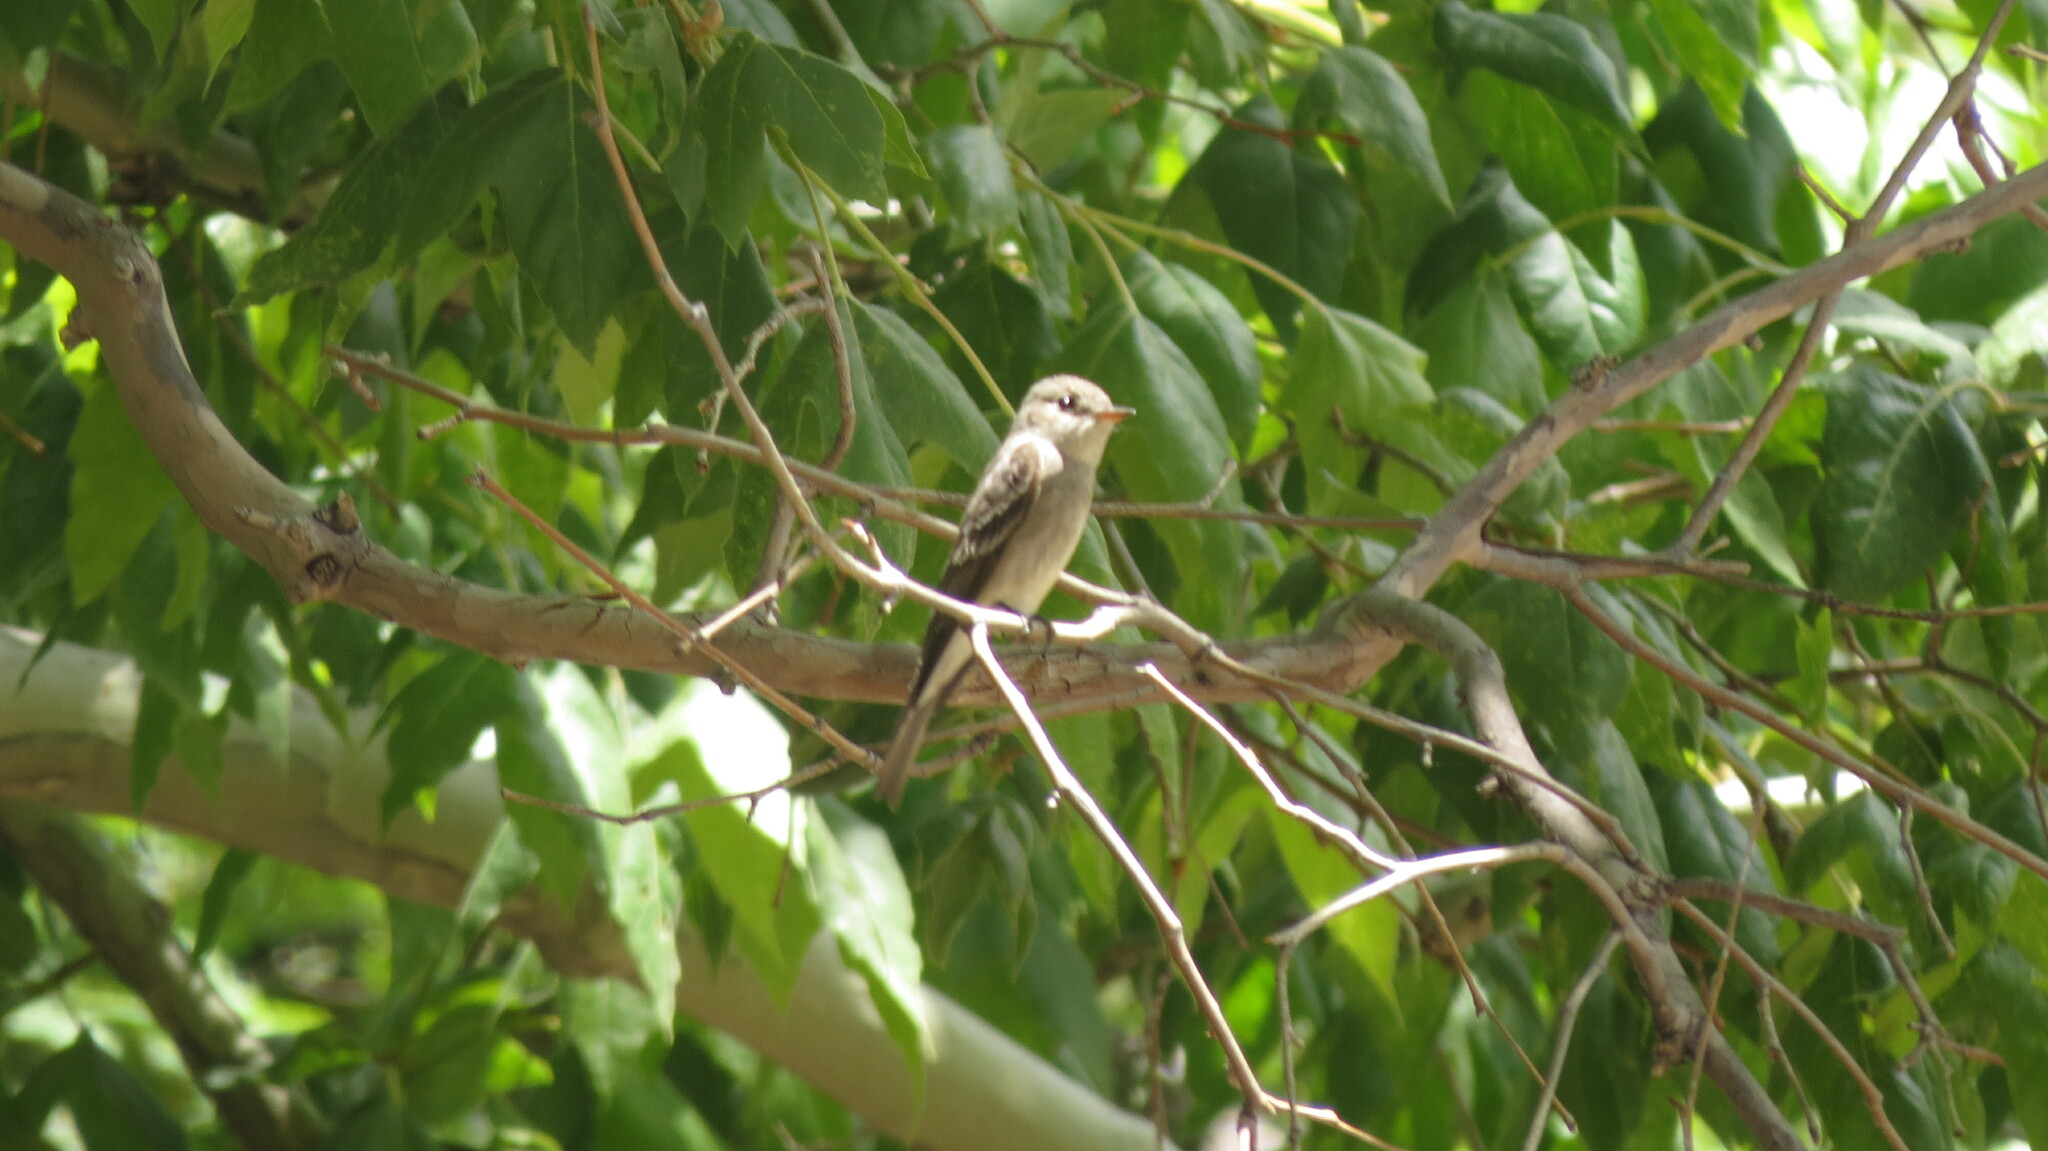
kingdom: Animalia
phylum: Chordata
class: Aves
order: Passeriformes
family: Tyrannidae
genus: Contopus
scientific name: Contopus sordidulus
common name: Western wood-pewee
